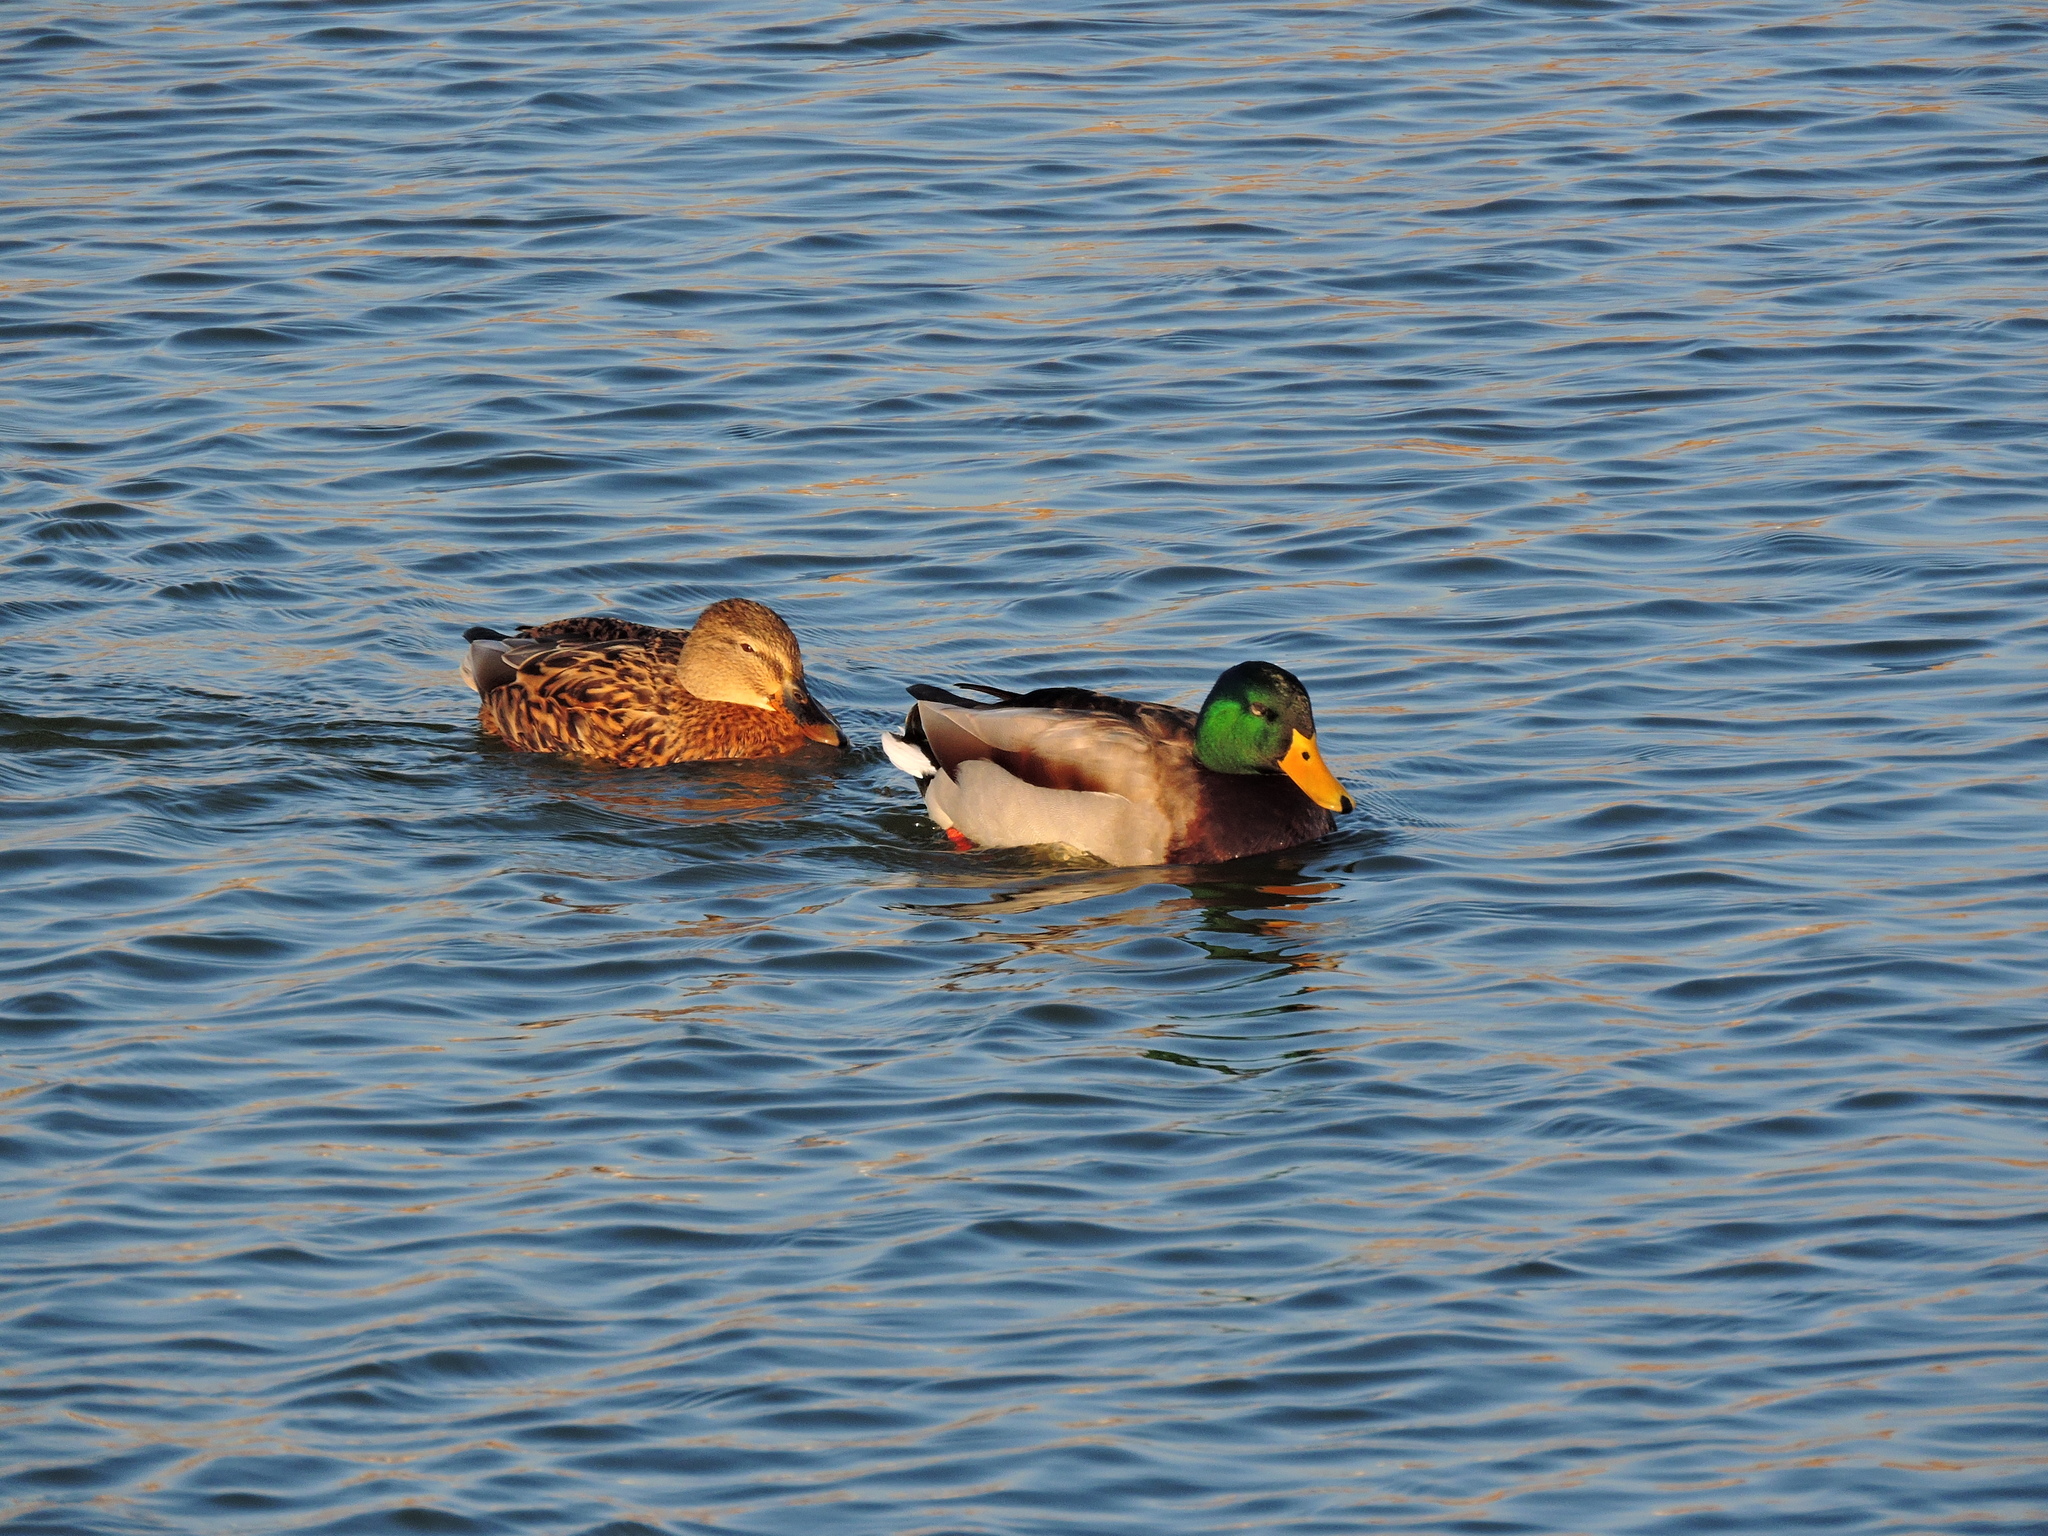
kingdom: Animalia
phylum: Chordata
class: Aves
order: Anseriformes
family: Anatidae
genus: Anas
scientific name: Anas platyrhynchos
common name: Mallard
